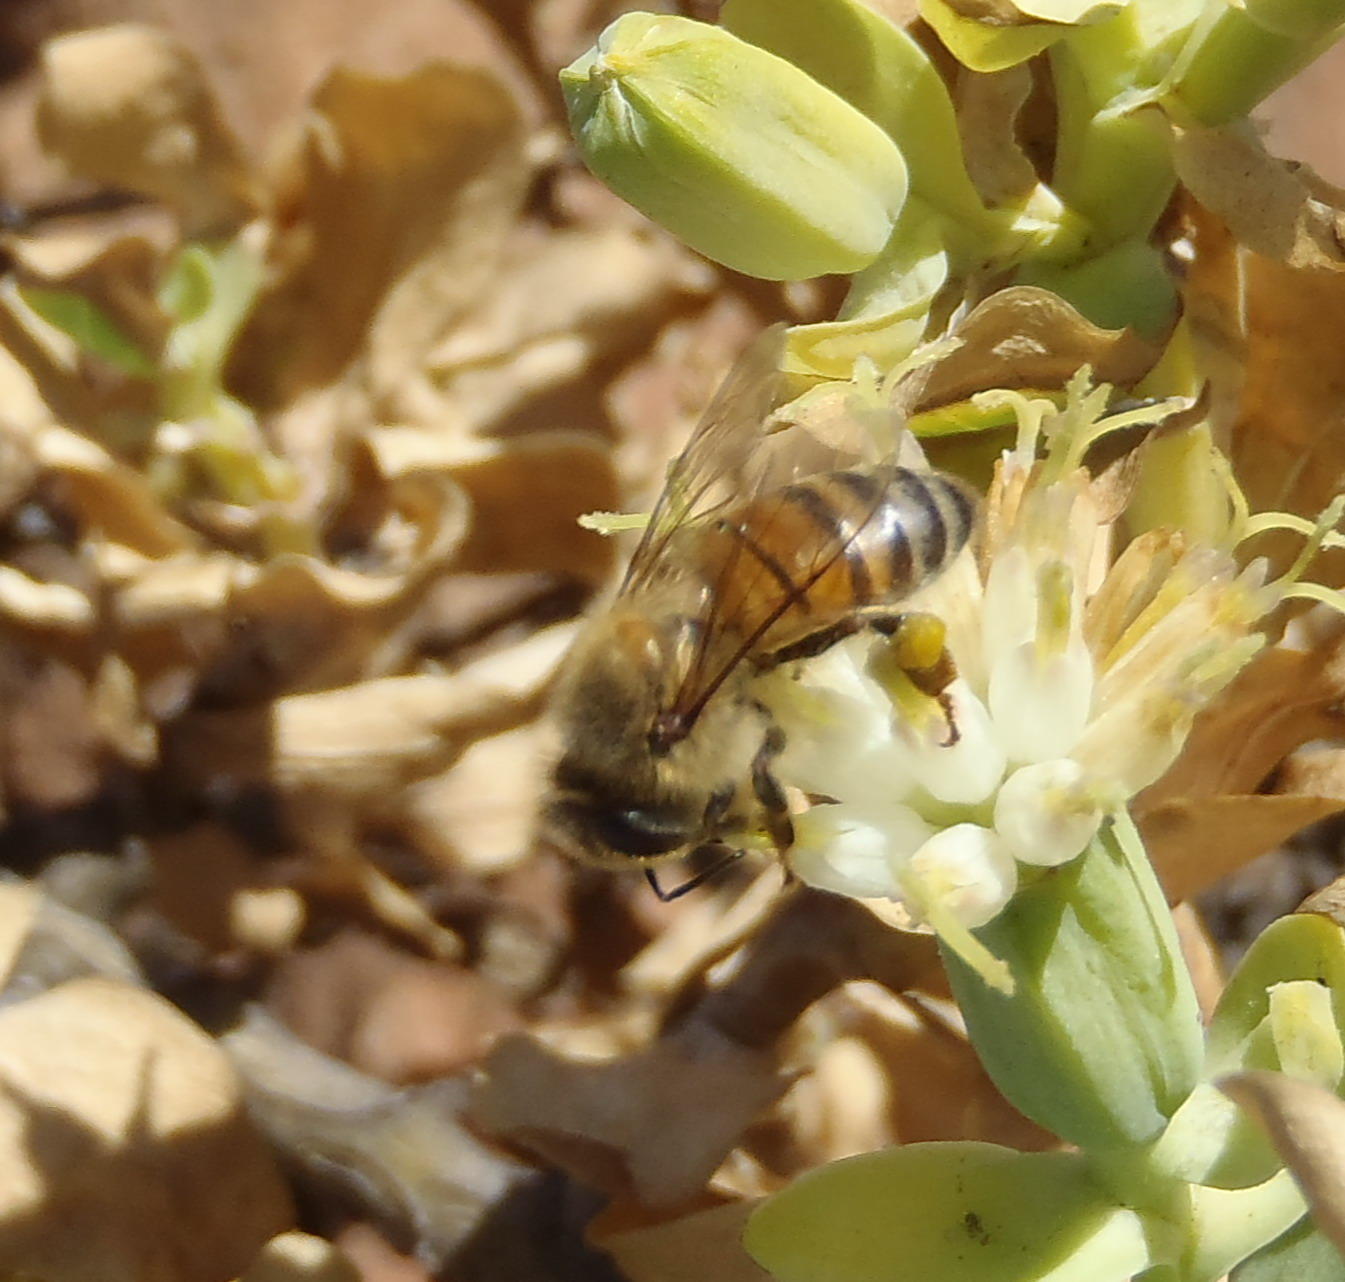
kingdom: Animalia
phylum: Arthropoda
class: Insecta
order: Hymenoptera
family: Apidae
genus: Apis
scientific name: Apis mellifera
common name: Honey bee
